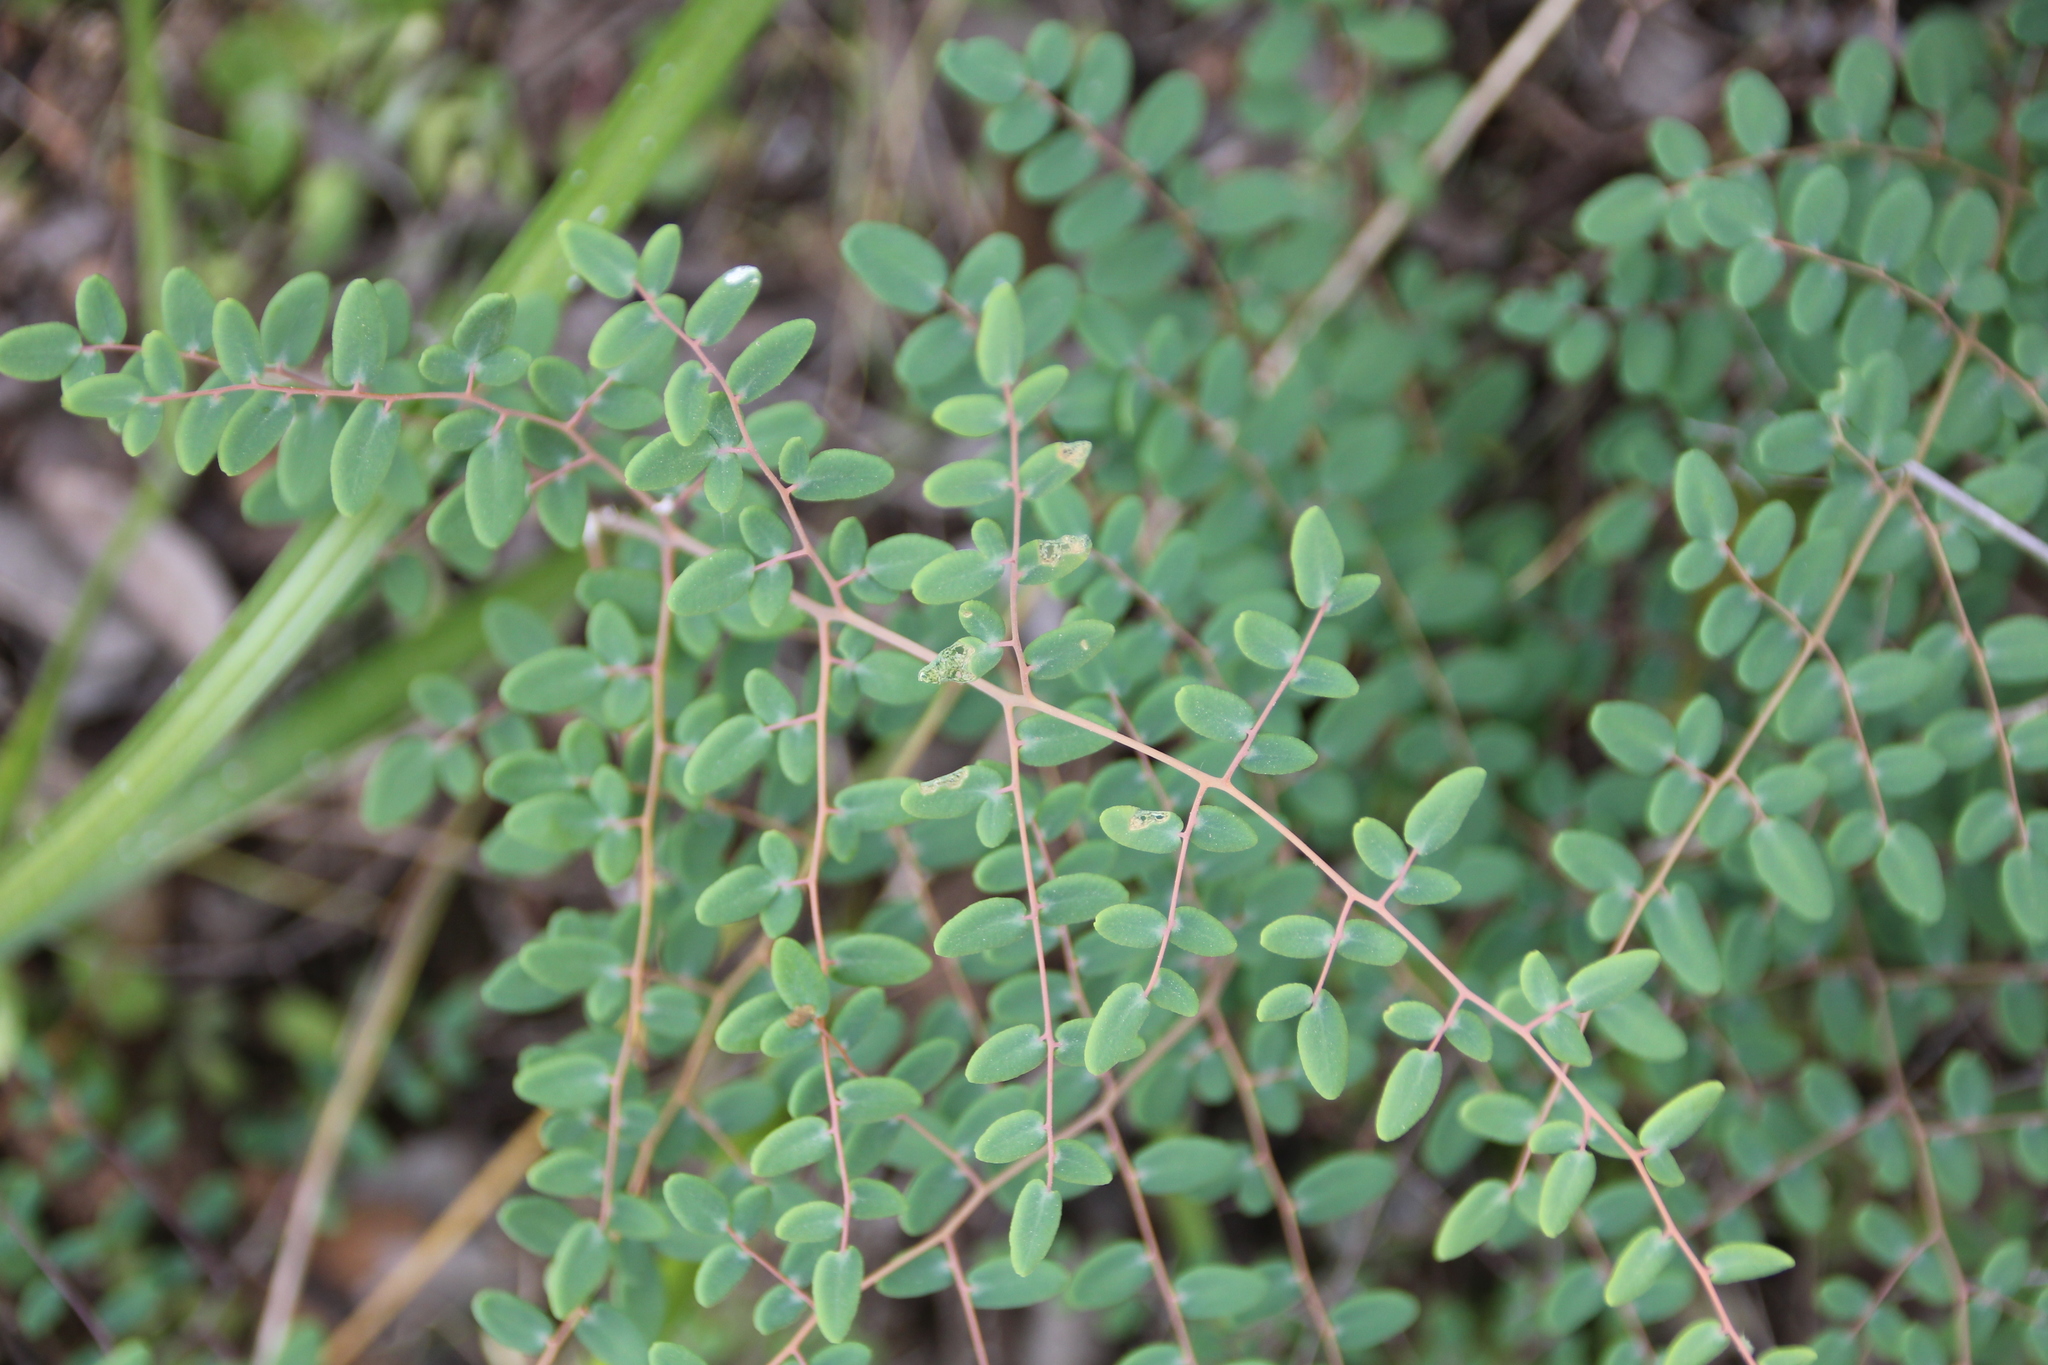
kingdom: Plantae
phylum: Tracheophyta
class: Polypodiopsida
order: Polypodiales
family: Pteridaceae
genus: Pellaea
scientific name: Pellaea andromedifolia
